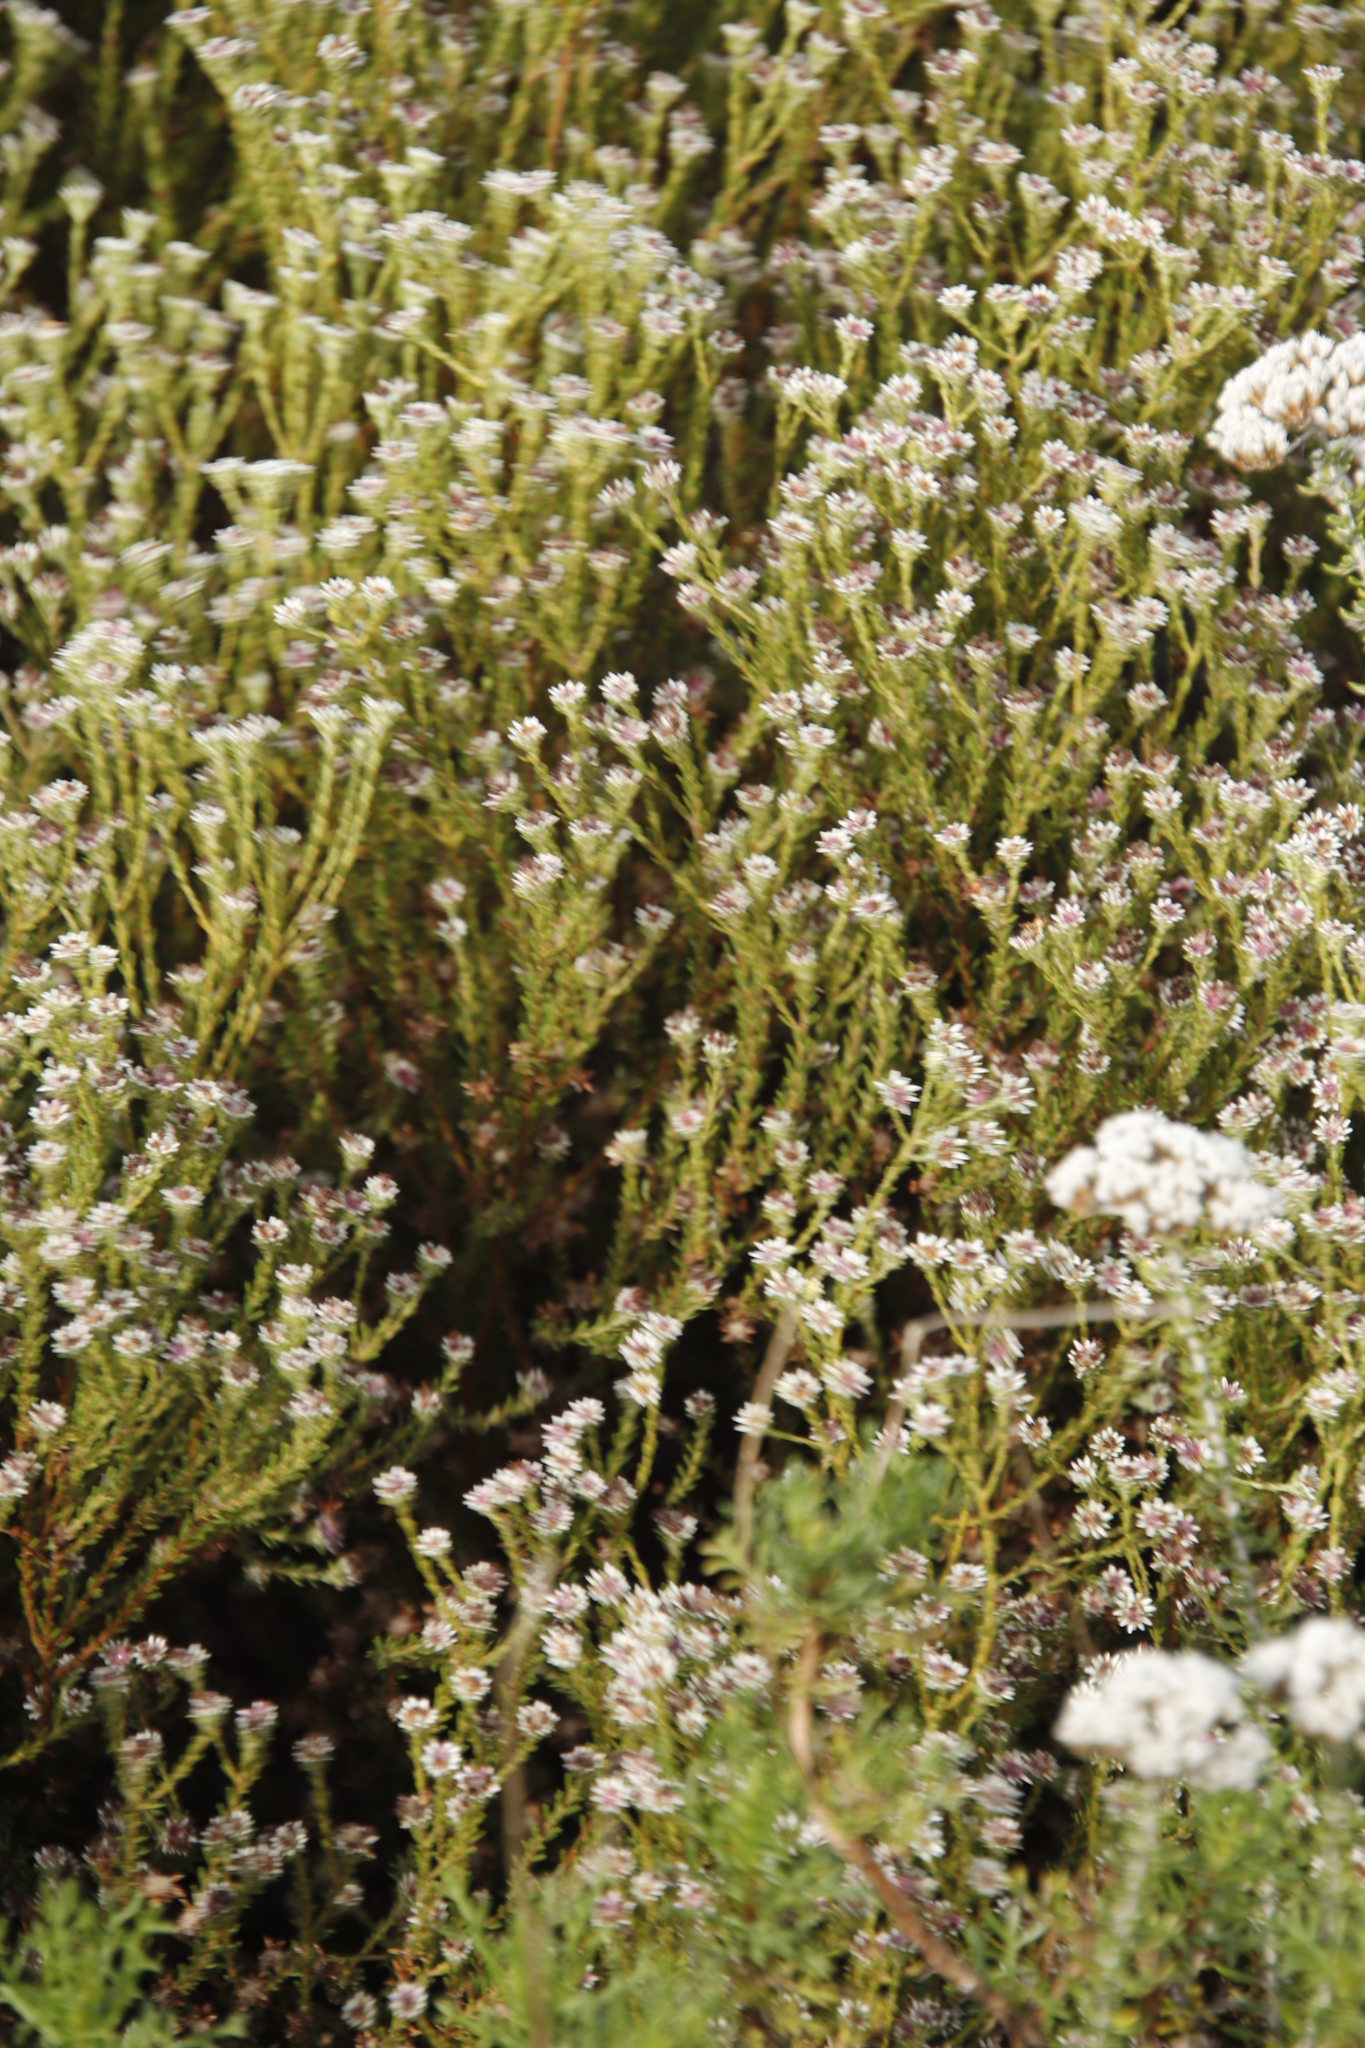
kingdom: Plantae
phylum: Tracheophyta
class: Magnoliopsida
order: Bruniales
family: Bruniaceae
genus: Staavia
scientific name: Staavia radiata
